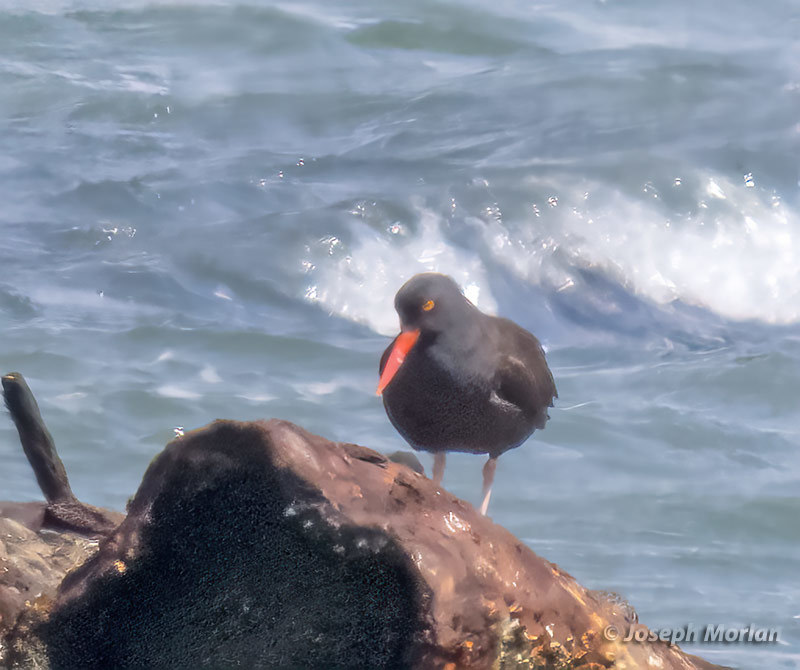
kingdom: Animalia
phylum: Chordata
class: Aves
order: Charadriiformes
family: Haematopodidae
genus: Haematopus
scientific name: Haematopus bachmani
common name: Black oystercatcher
